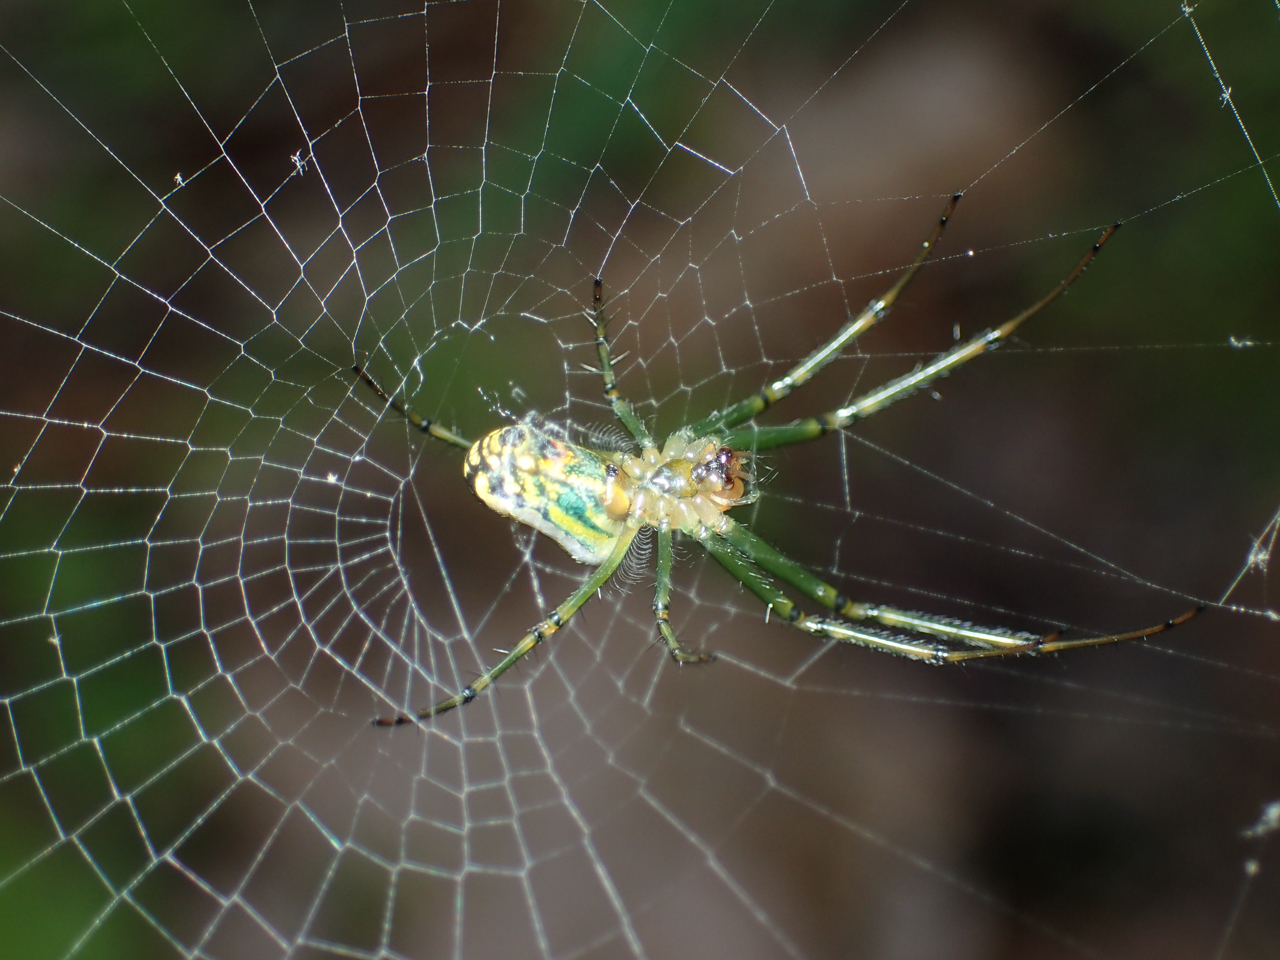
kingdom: Animalia
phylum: Arthropoda
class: Arachnida
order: Araneae
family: Tetragnathidae
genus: Leucauge
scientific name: Leucauge venusta
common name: Longjawed orb weavers
